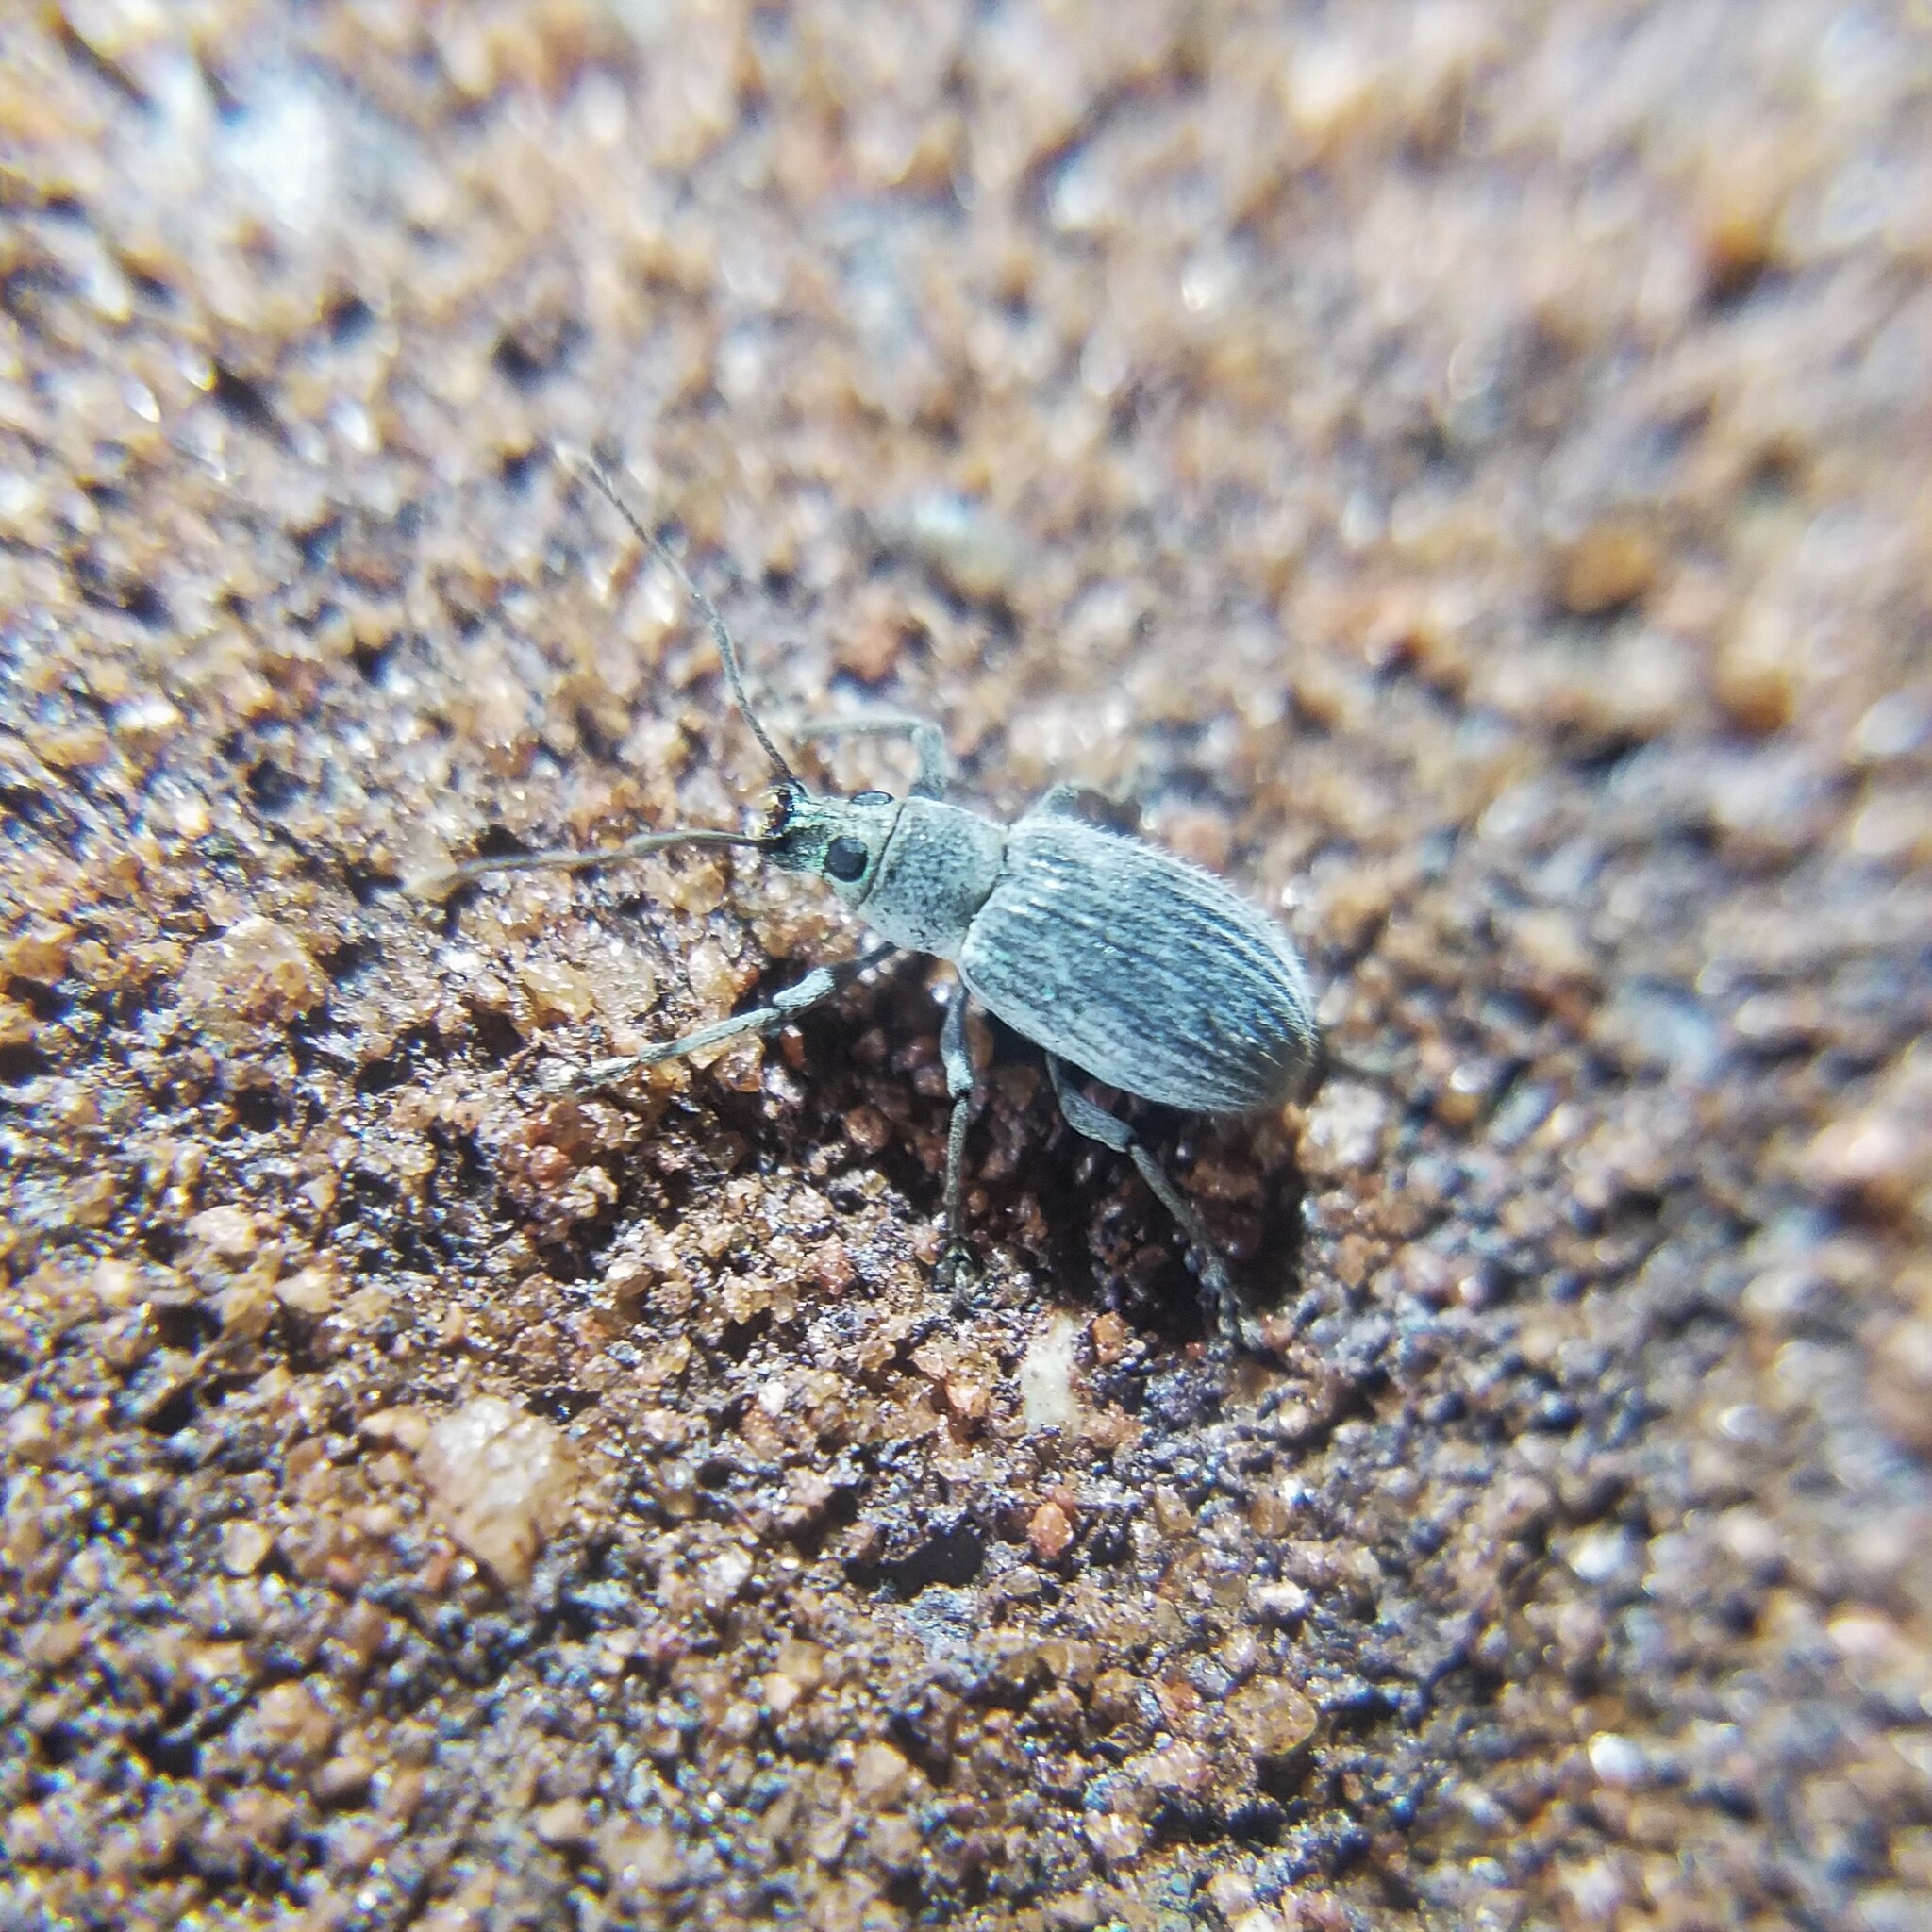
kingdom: Animalia
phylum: Arthropoda
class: Insecta
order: Coleoptera
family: Curculionidae
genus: Cyrtepistomus
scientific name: Cyrtepistomus castaneus
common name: Weevil
